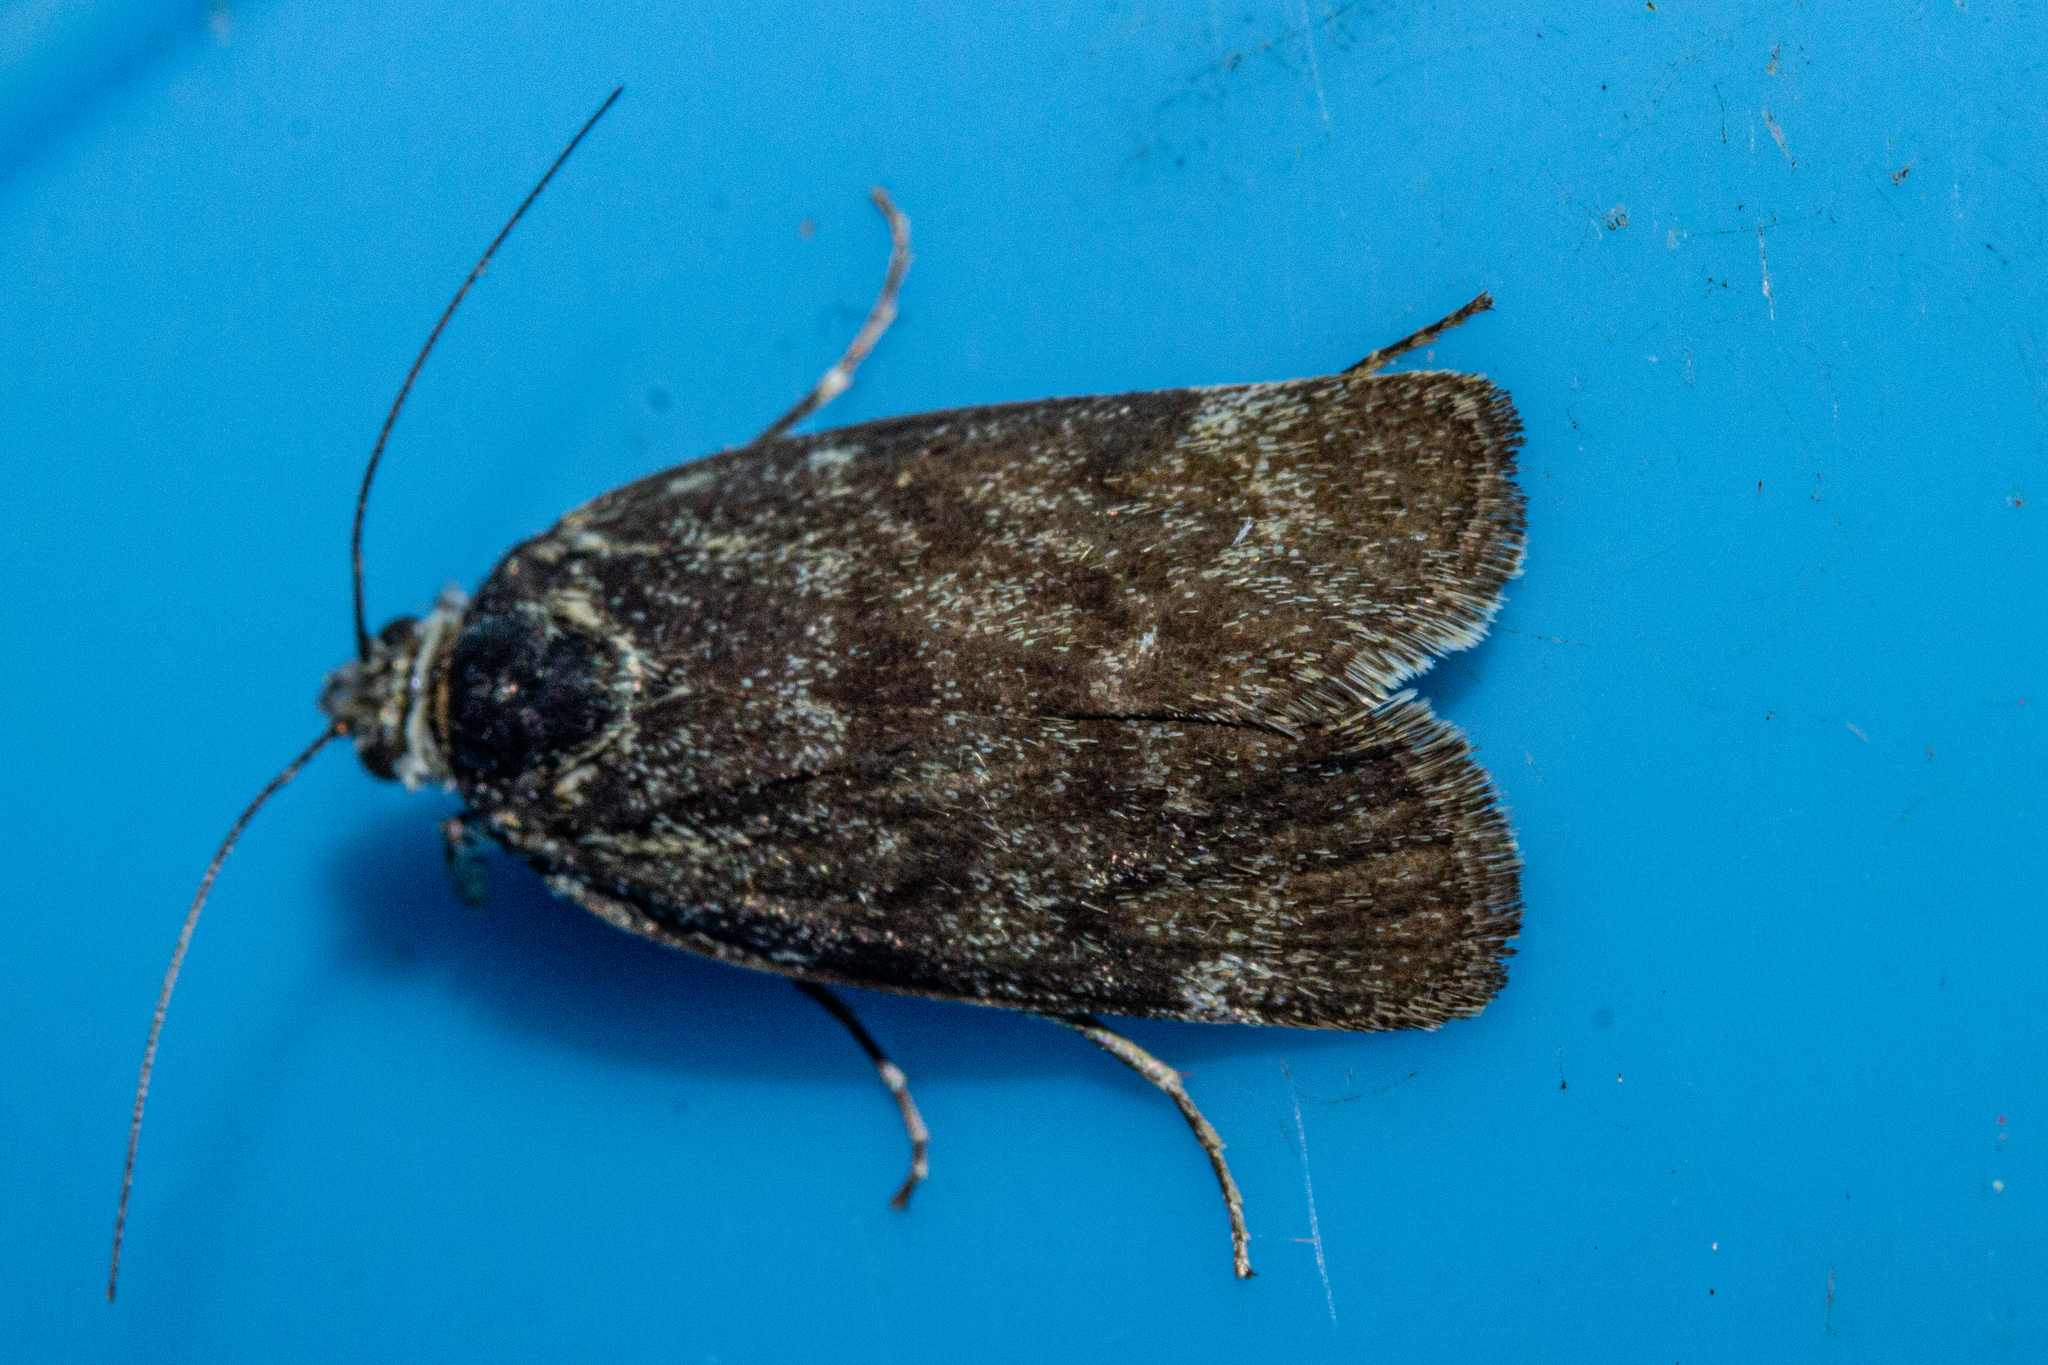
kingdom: Animalia
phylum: Arthropoda
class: Insecta
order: Lepidoptera
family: Crambidae
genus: Tauroscopa
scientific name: Tauroscopa gorgopis
